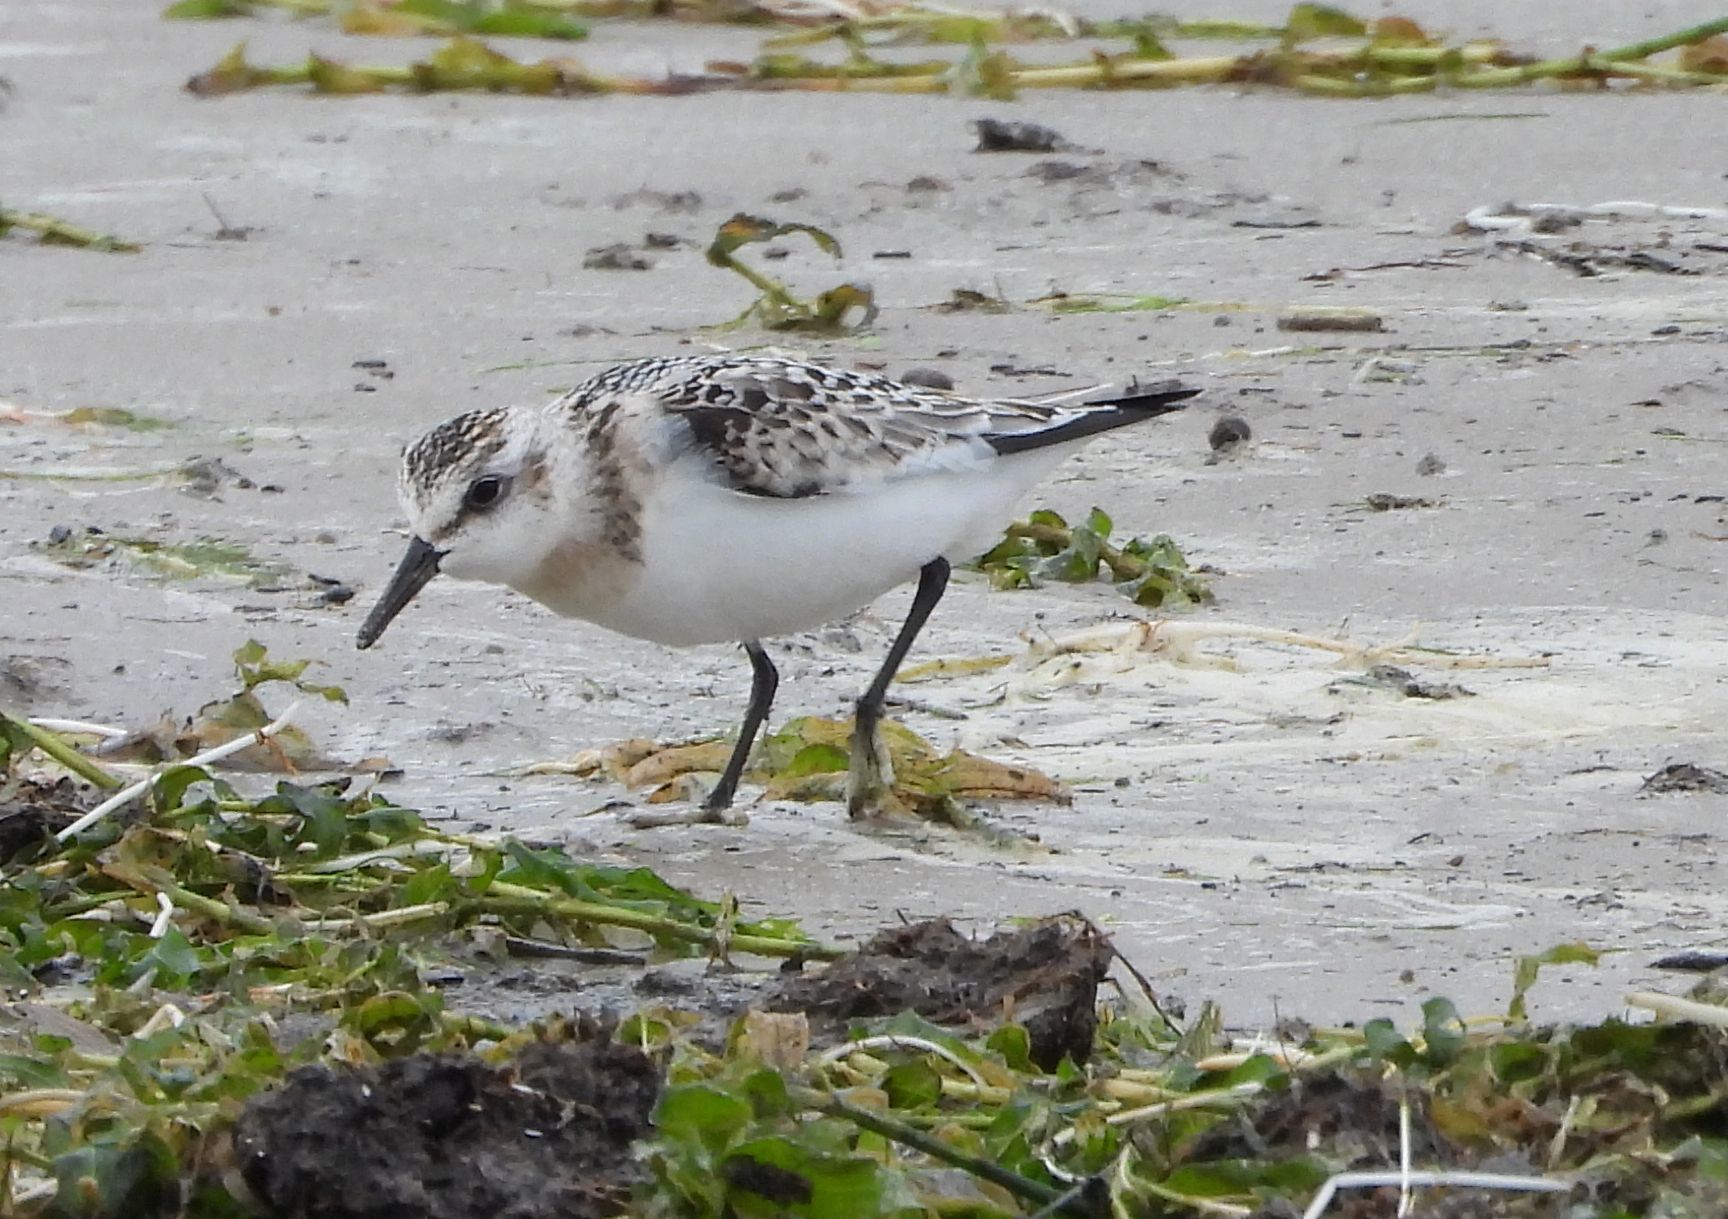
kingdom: Animalia
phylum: Chordata
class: Aves
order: Charadriiformes
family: Scolopacidae
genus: Calidris
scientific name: Calidris alba
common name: Sanderling
